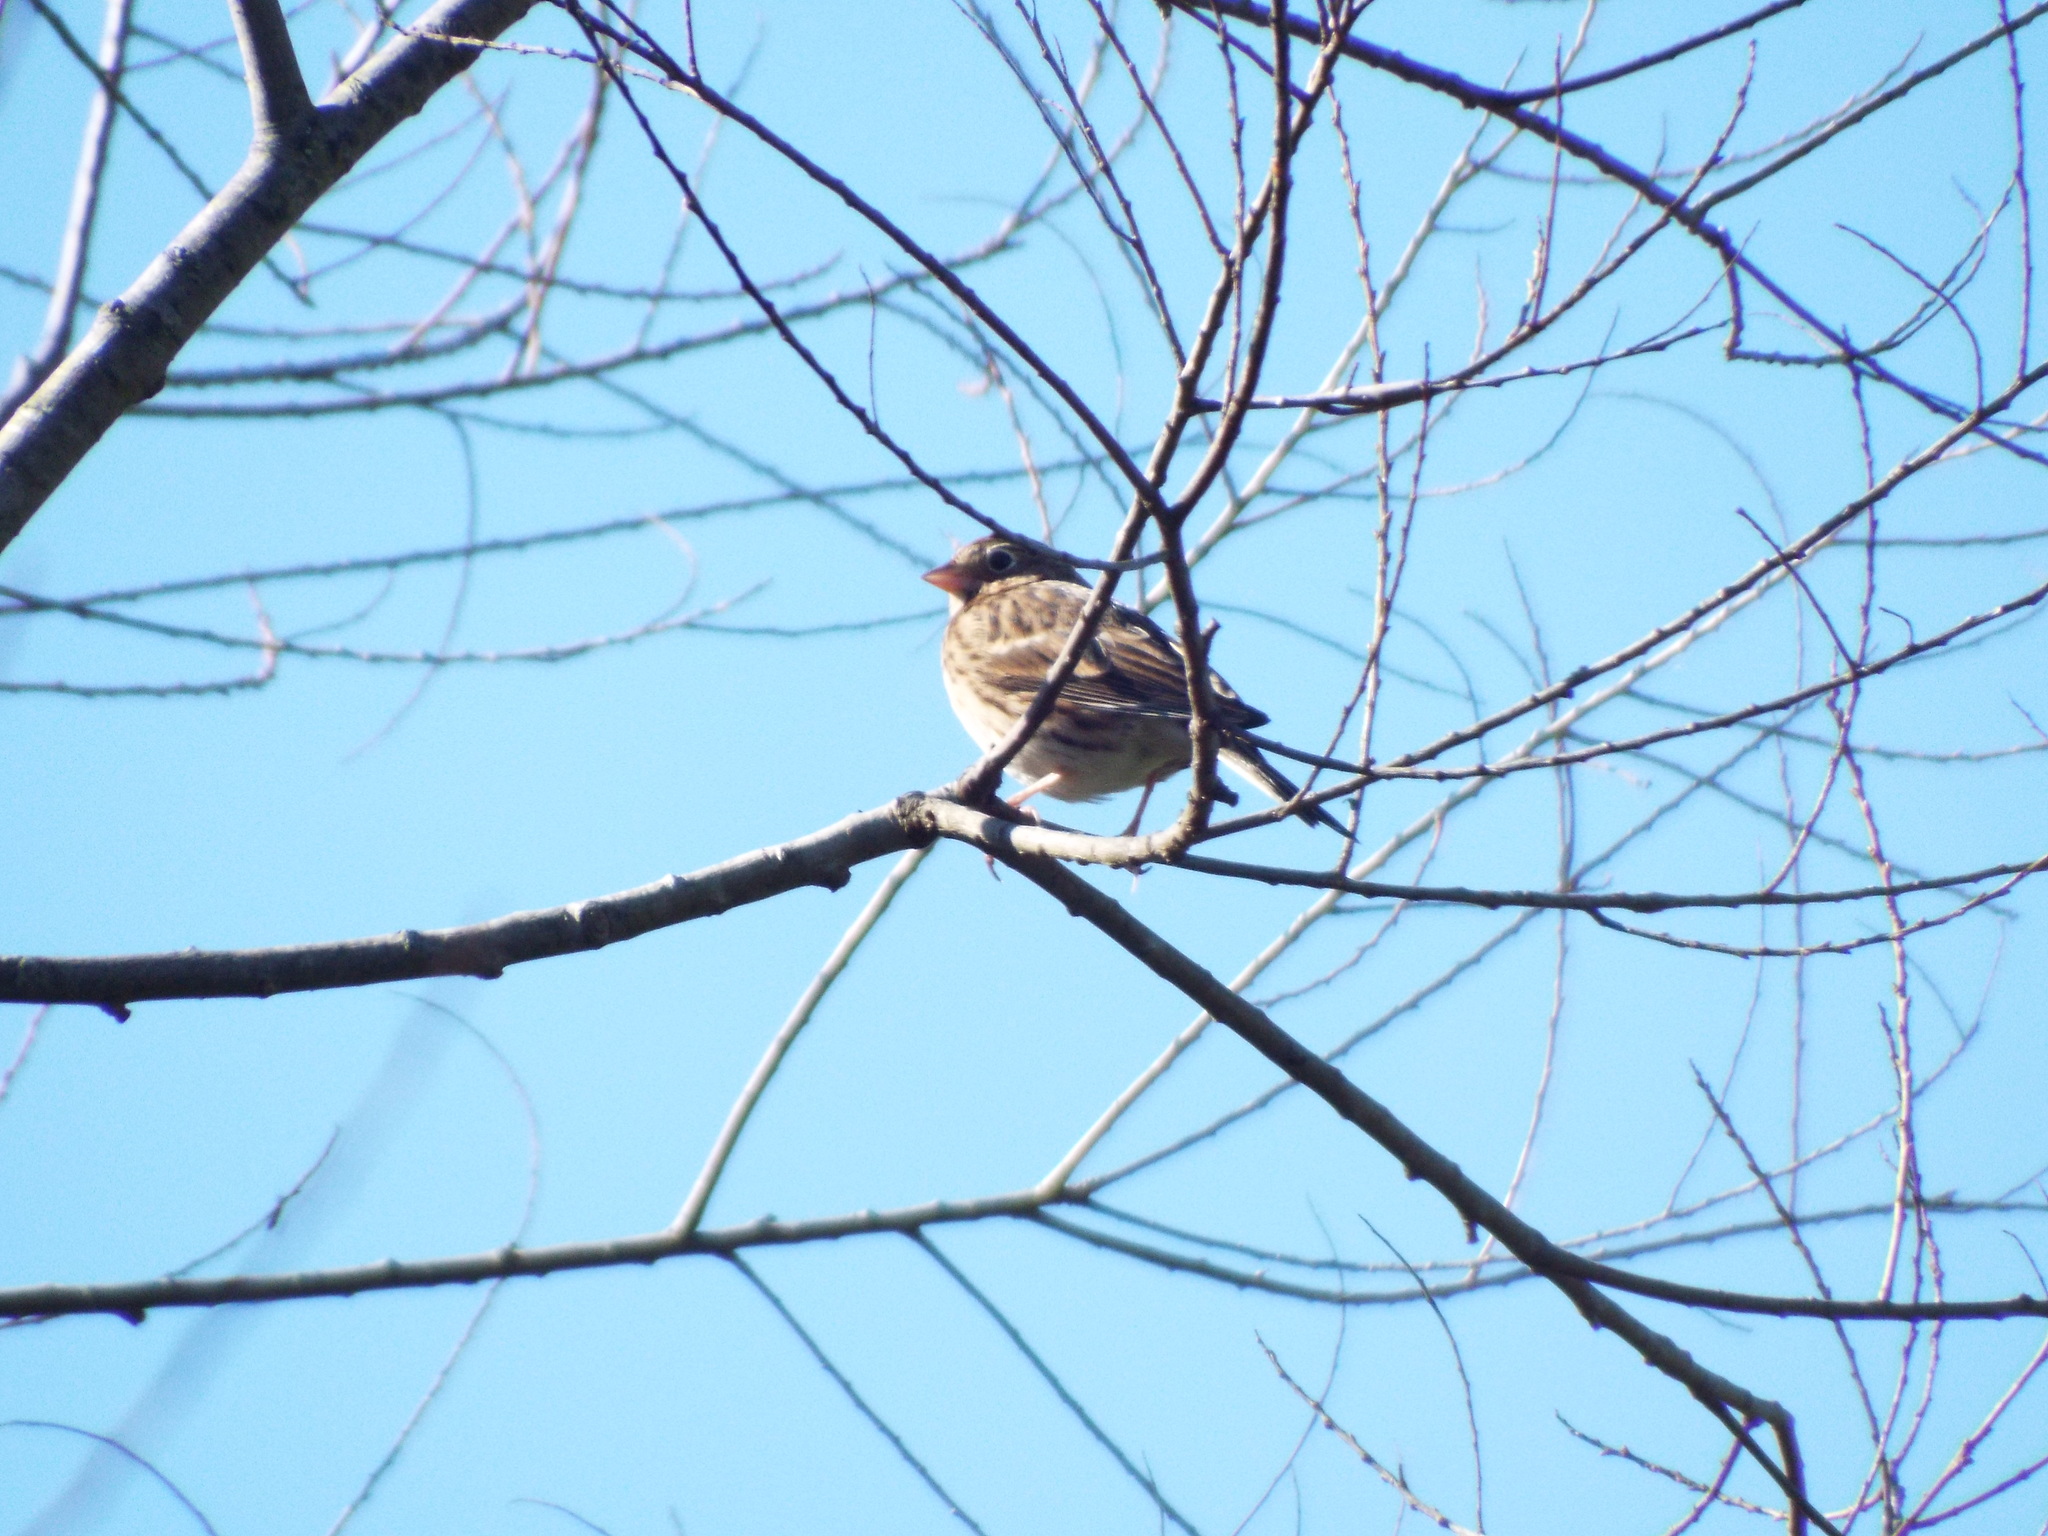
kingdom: Animalia
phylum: Chordata
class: Aves
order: Passeriformes
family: Passerellidae
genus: Pooecetes
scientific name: Pooecetes gramineus
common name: Vesper sparrow
